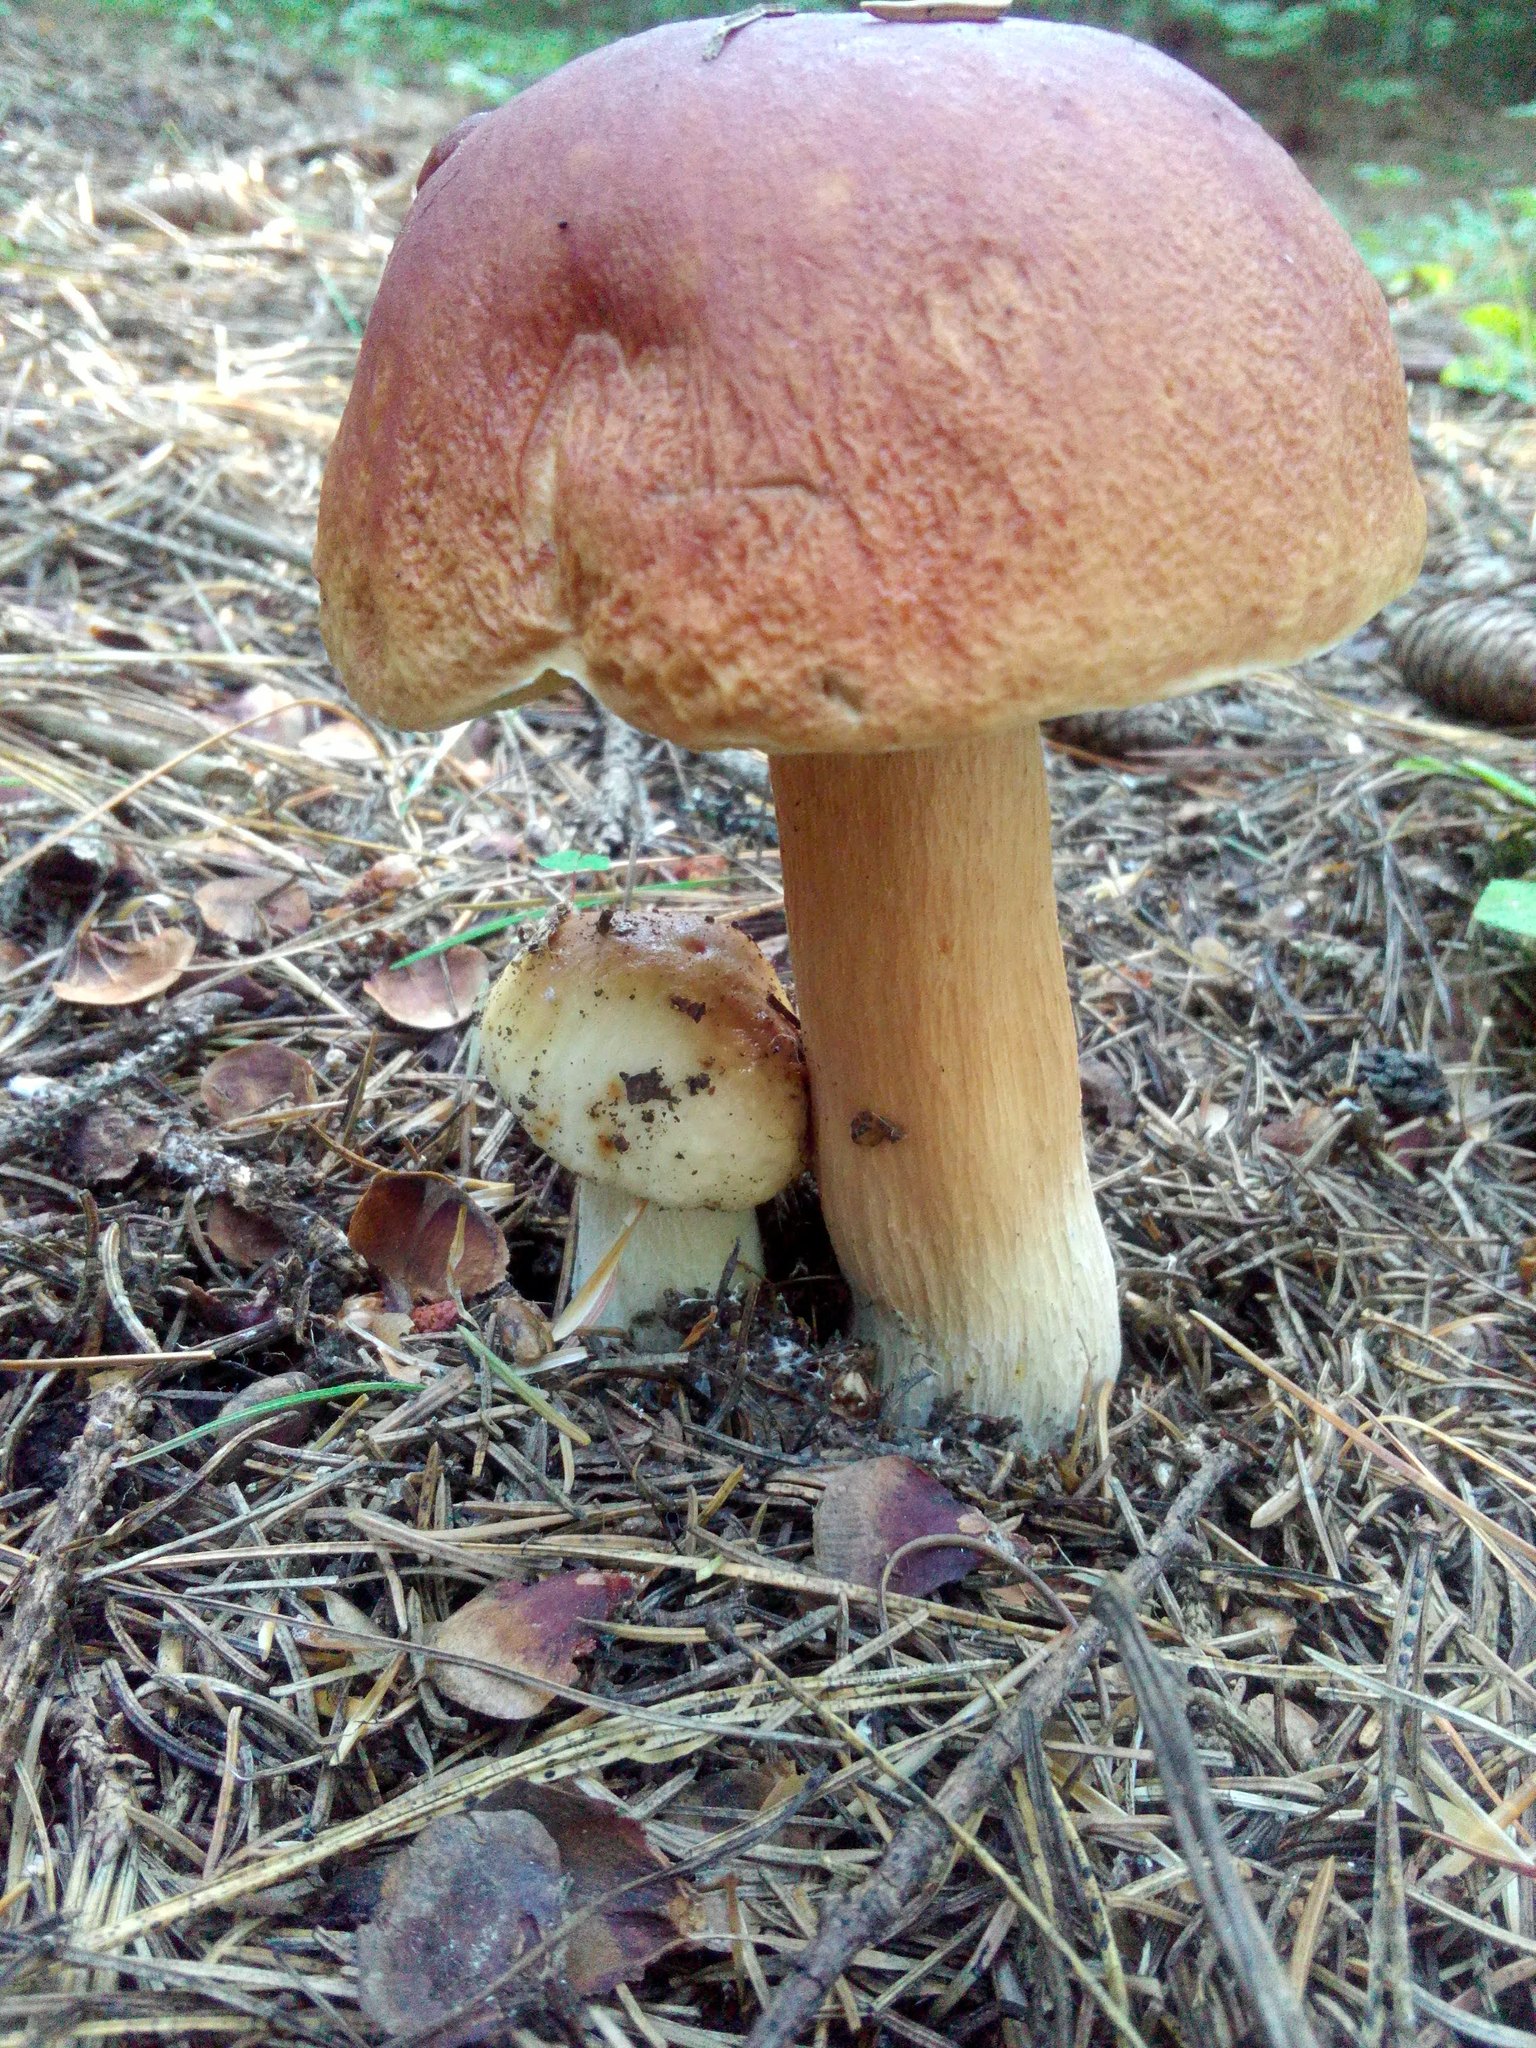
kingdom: Fungi
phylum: Basidiomycota
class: Agaricomycetes
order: Boletales
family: Boletaceae
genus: Boletus
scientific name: Boletus edulis
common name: Cep
